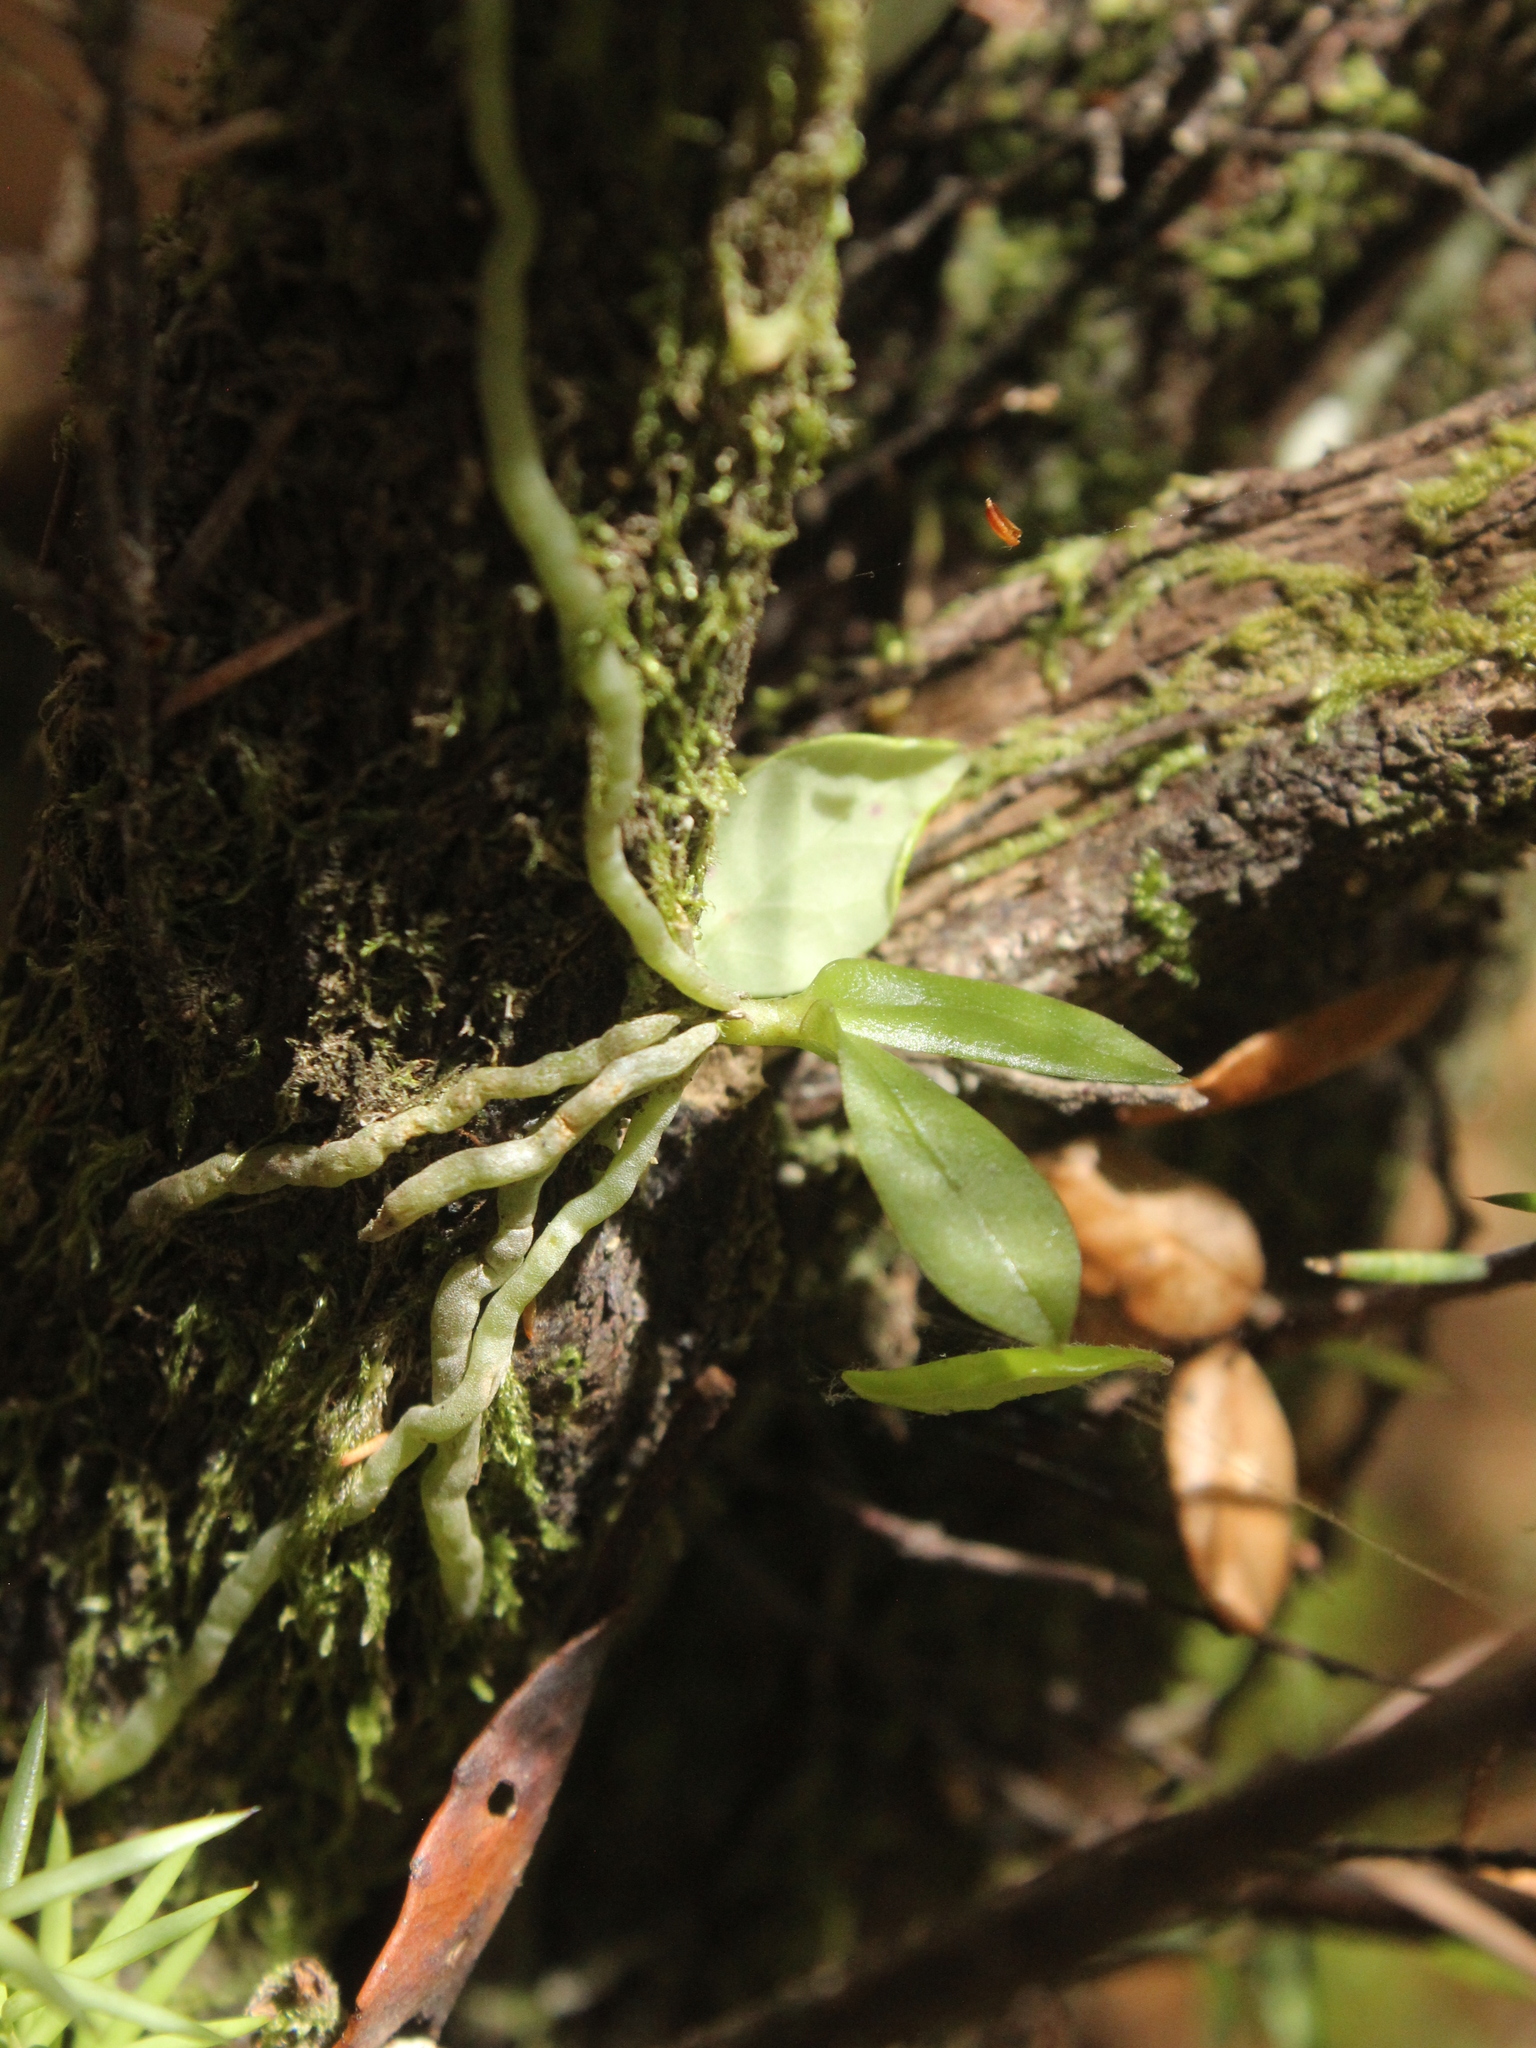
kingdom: Plantae
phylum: Tracheophyta
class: Liliopsida
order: Asparagales
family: Orchidaceae
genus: Drymoanthus
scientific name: Drymoanthus adversus
